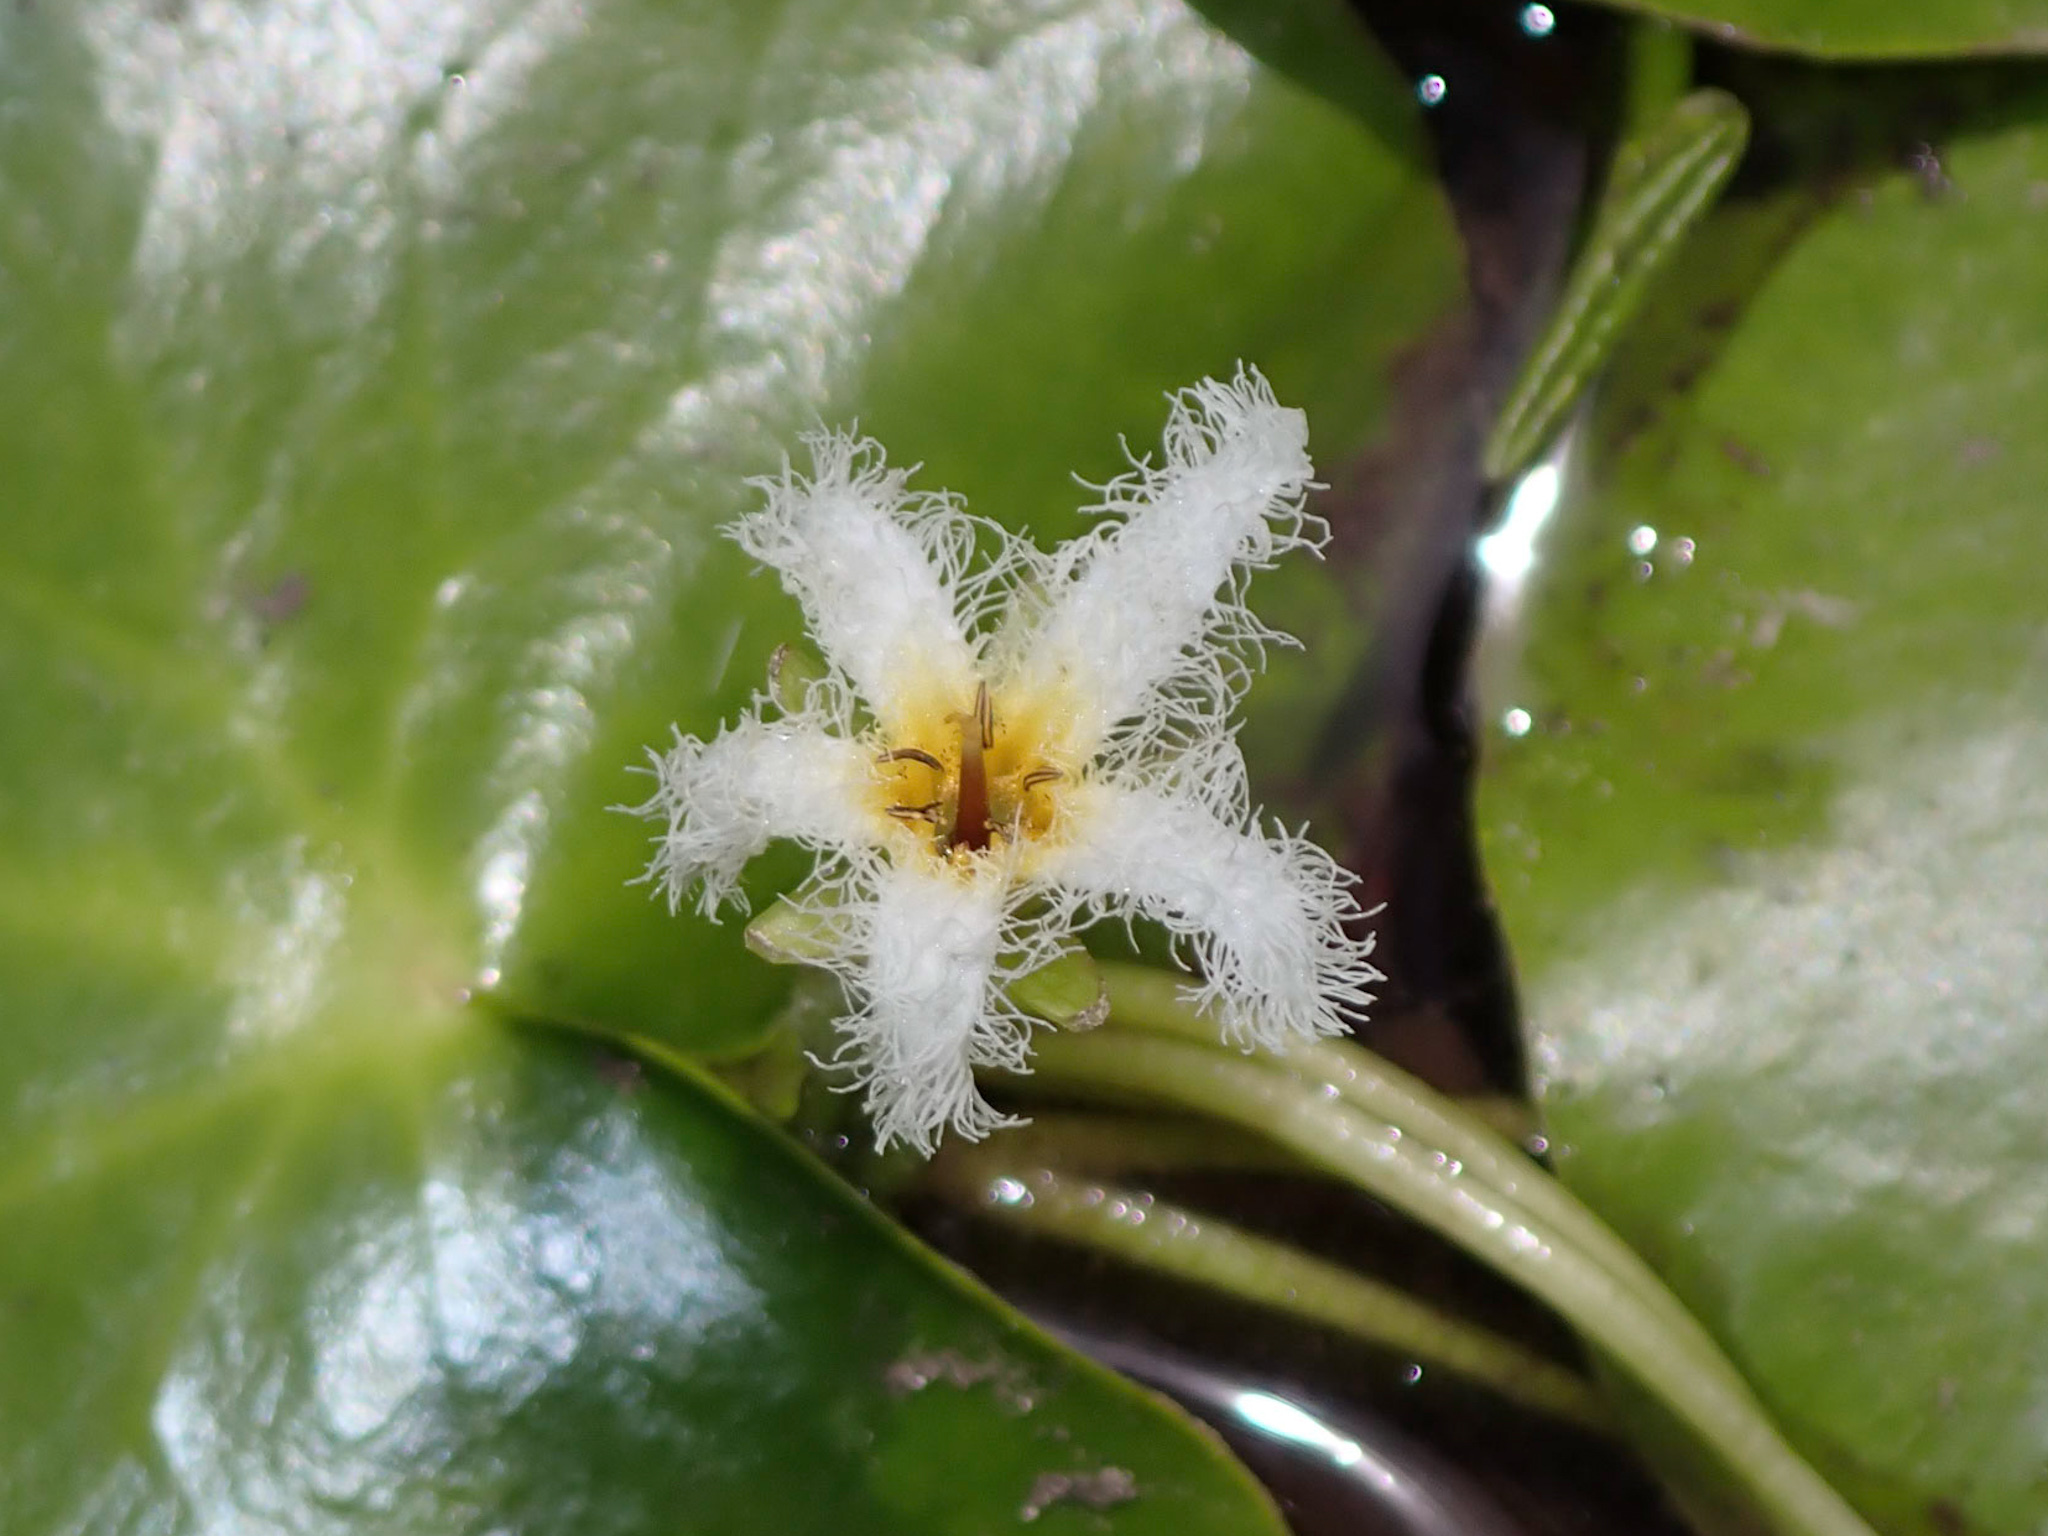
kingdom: Plantae
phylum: Tracheophyta
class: Magnoliopsida
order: Asterales
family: Menyanthaceae
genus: Nymphoides
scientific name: Nymphoides humboldtiana
